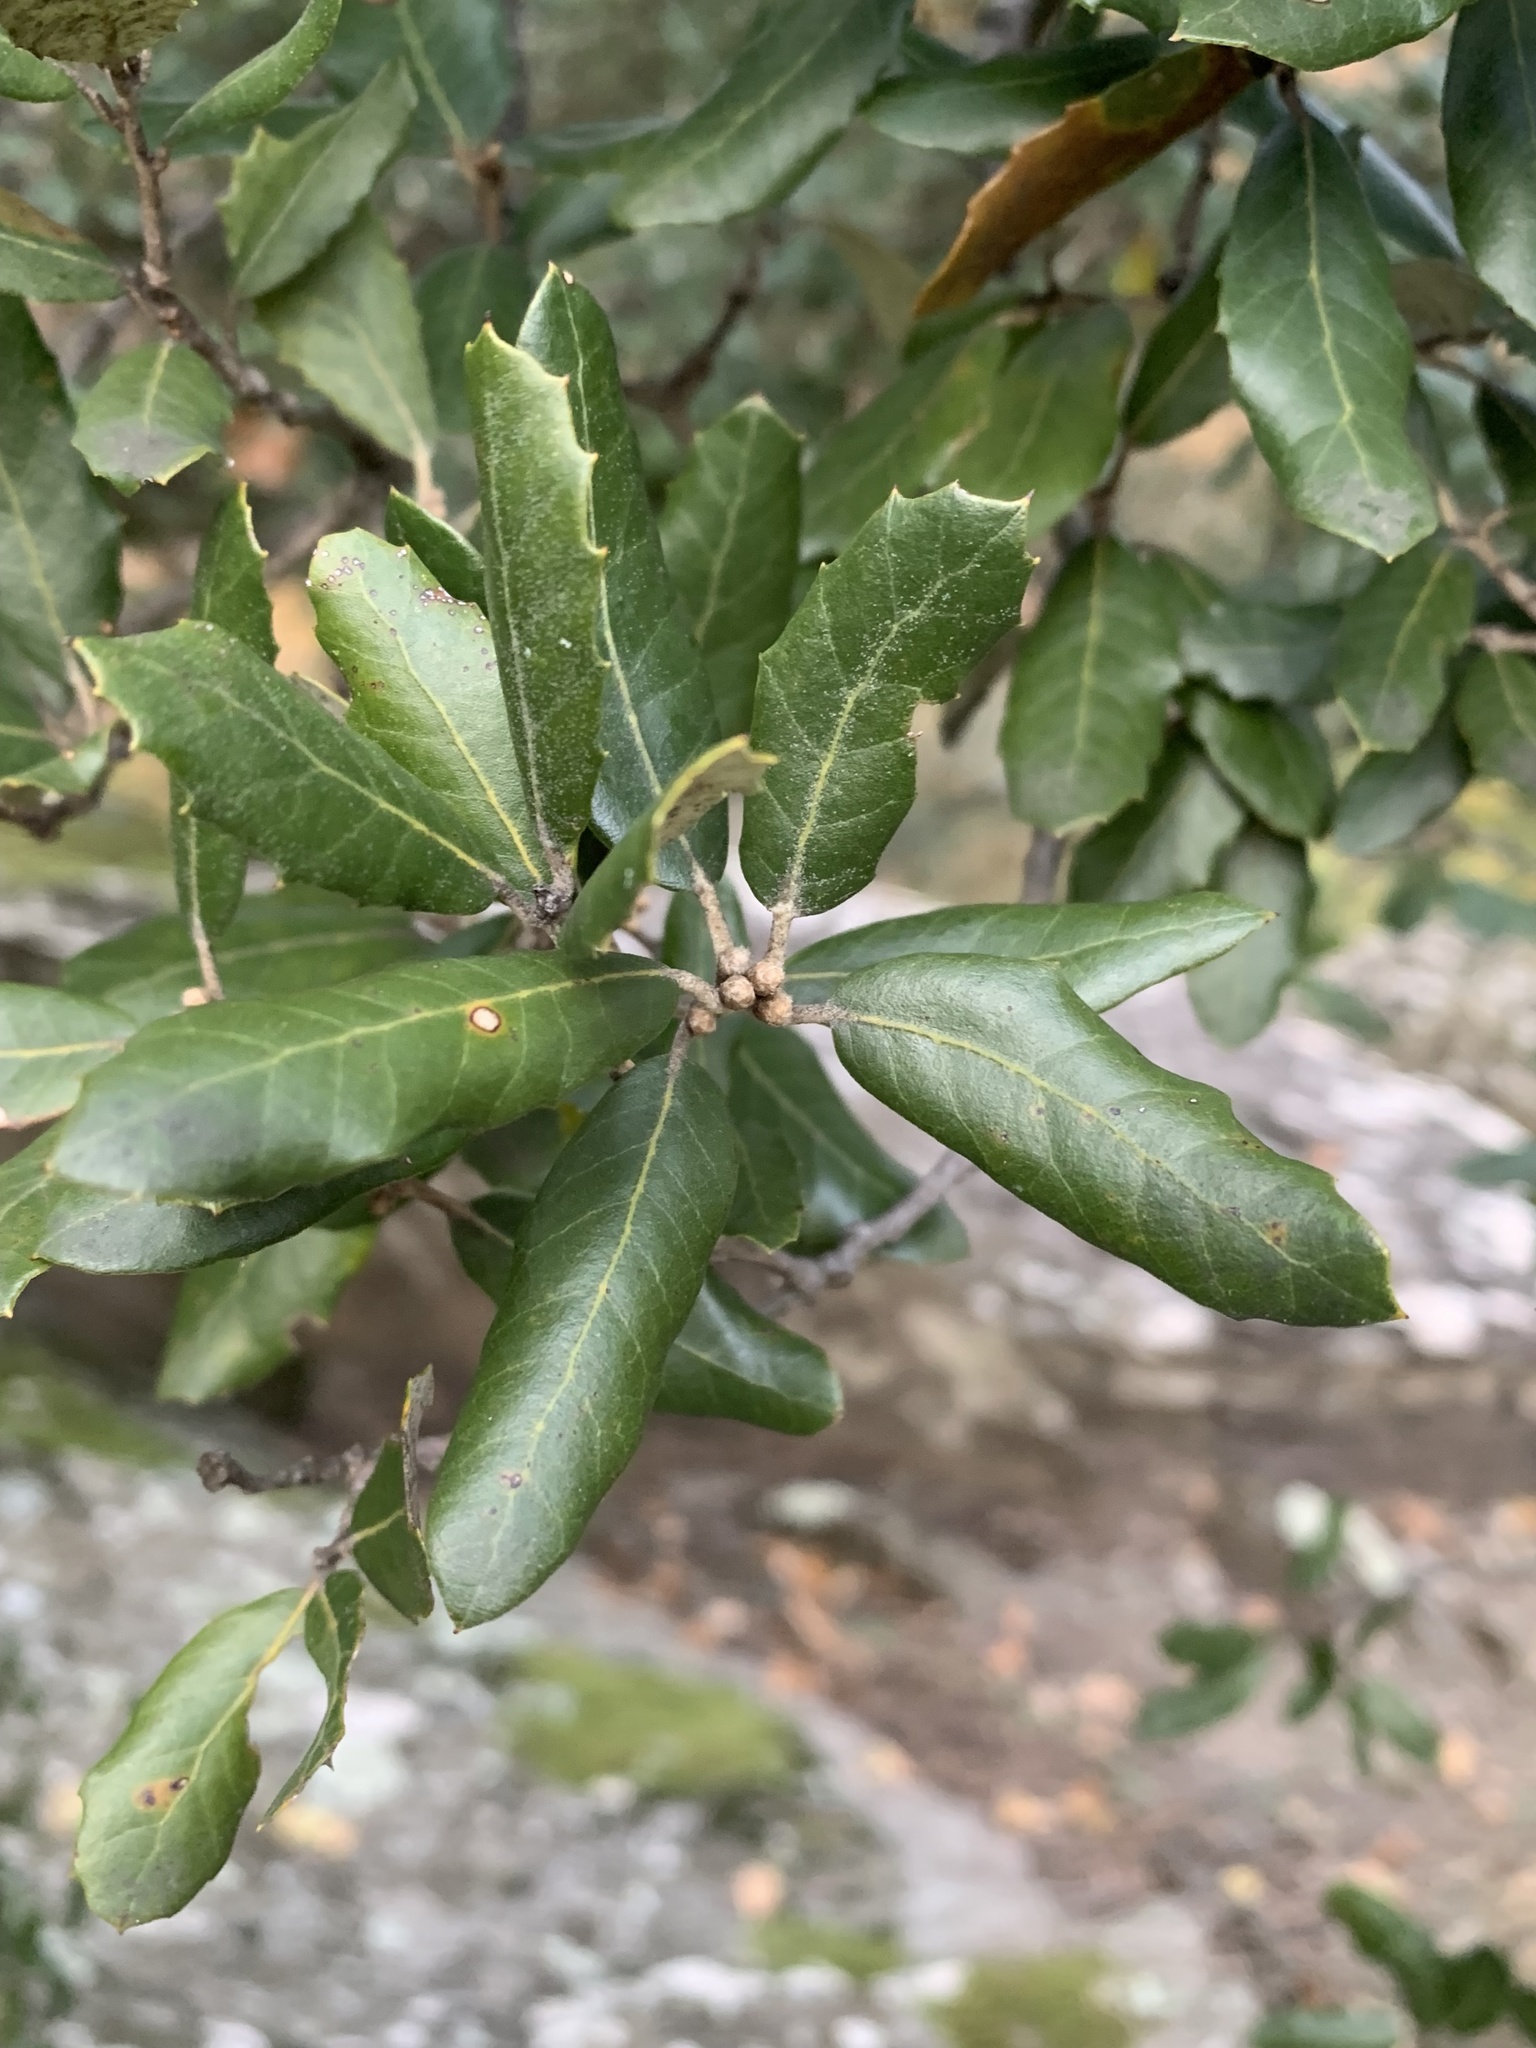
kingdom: Plantae
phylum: Tracheophyta
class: Magnoliopsida
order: Fagales
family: Fagaceae
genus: Quercus
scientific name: Quercus ilex
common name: Evergreen oak
